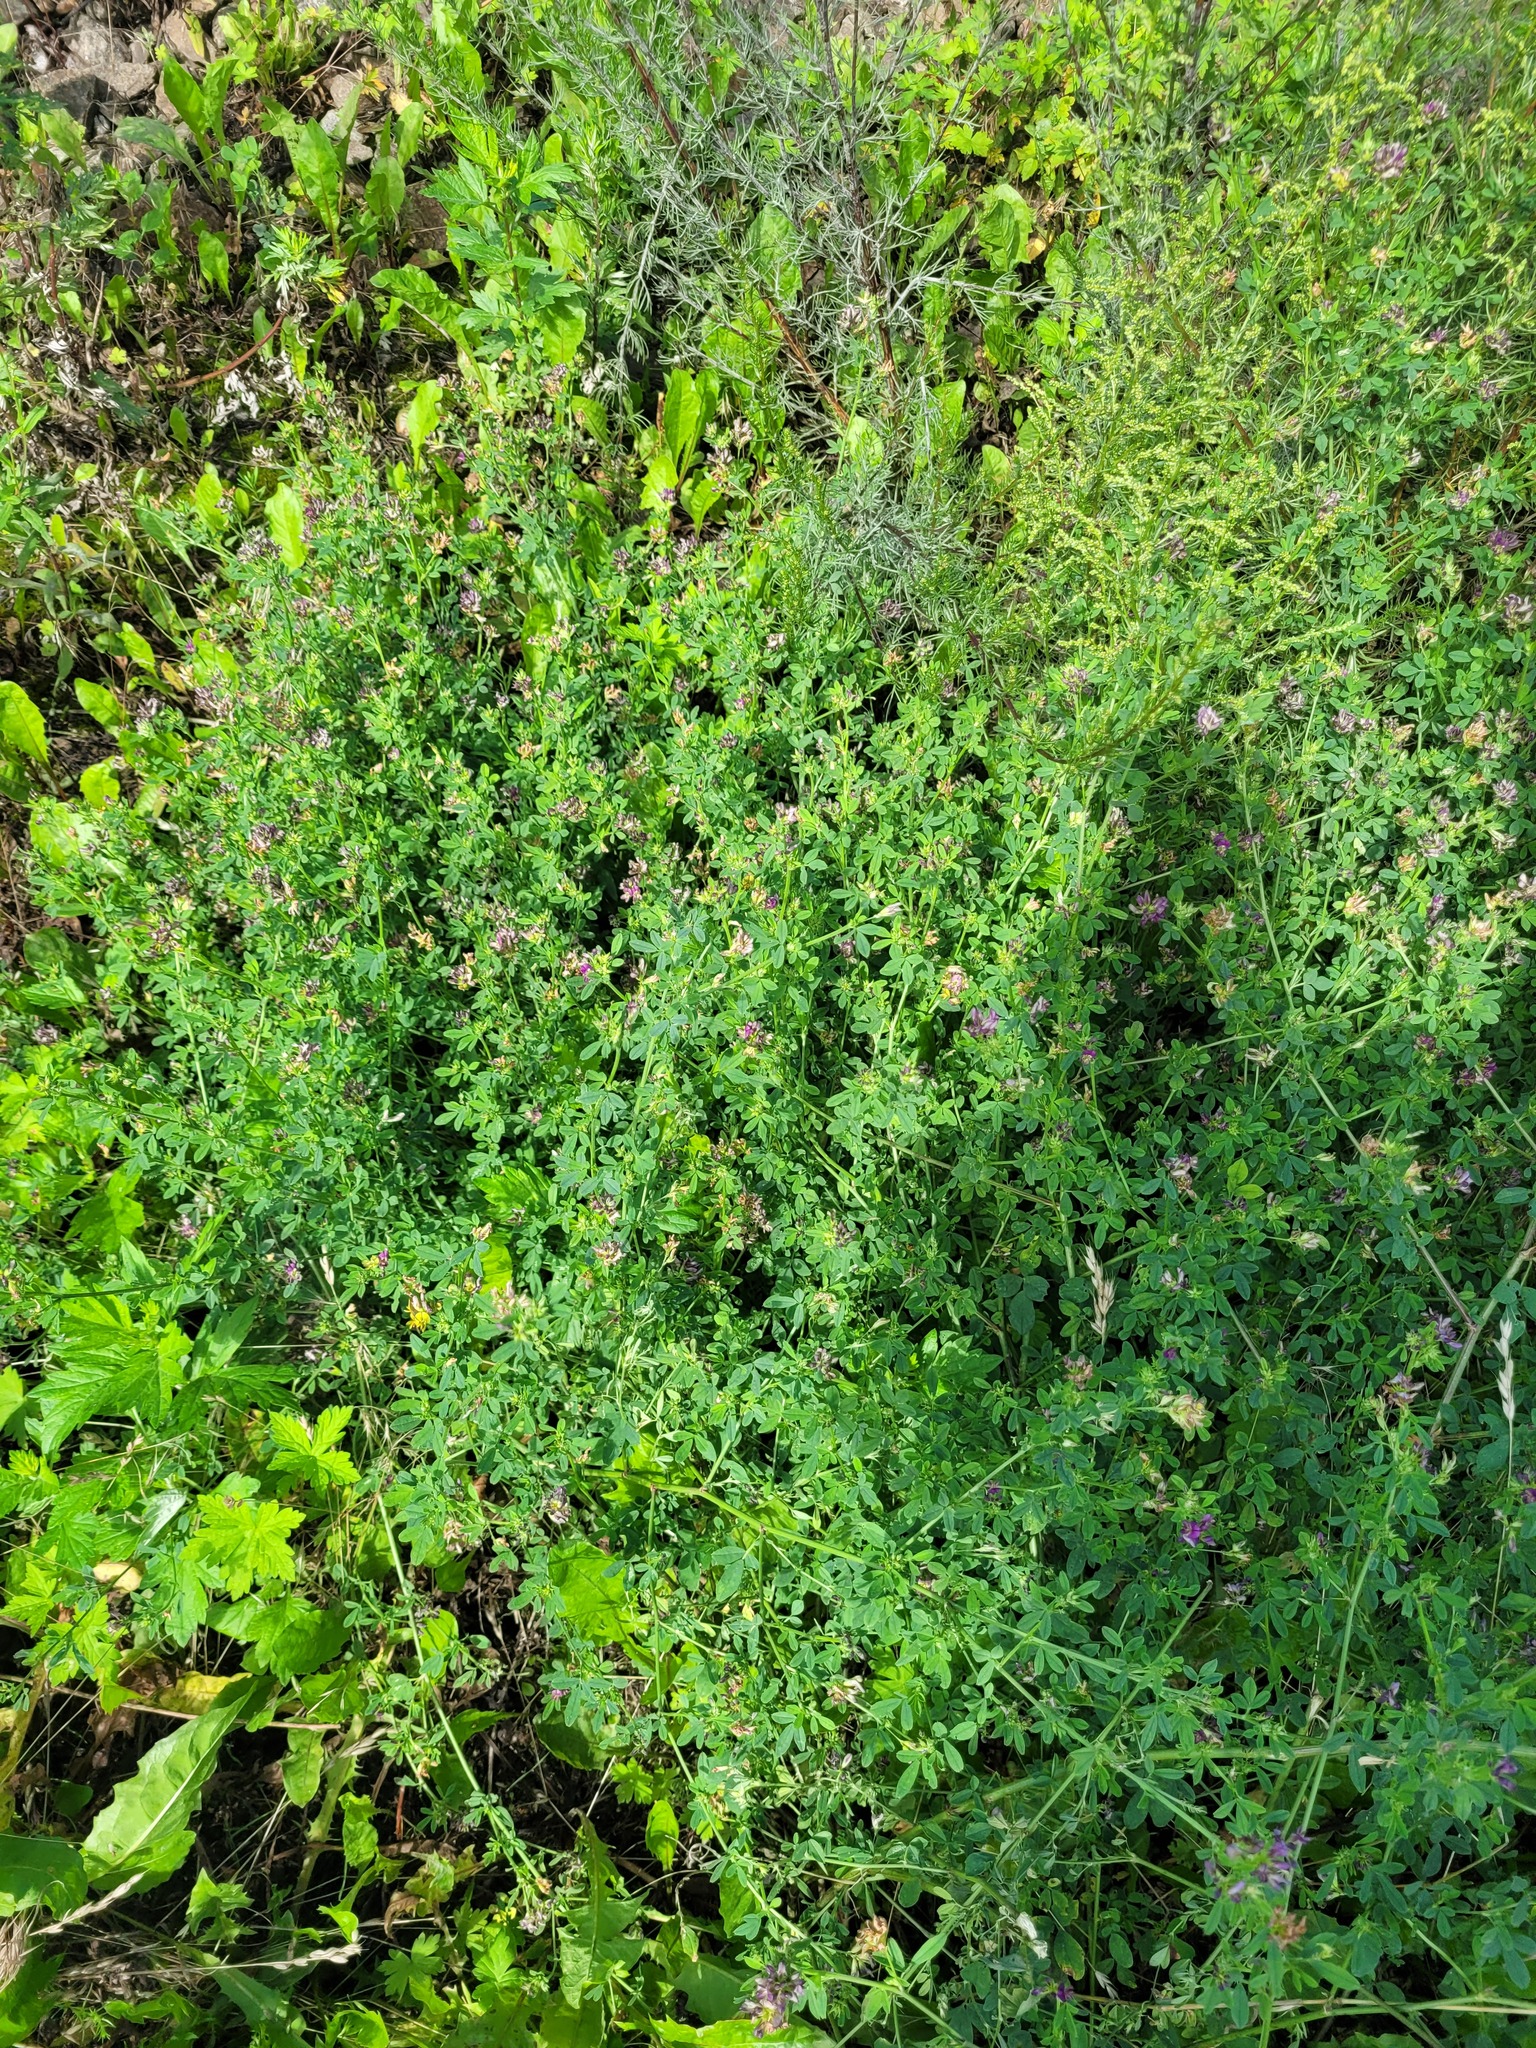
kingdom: Plantae
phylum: Tracheophyta
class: Magnoliopsida
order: Fabales
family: Fabaceae
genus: Medicago
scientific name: Medicago varia
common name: Sand lucerne
